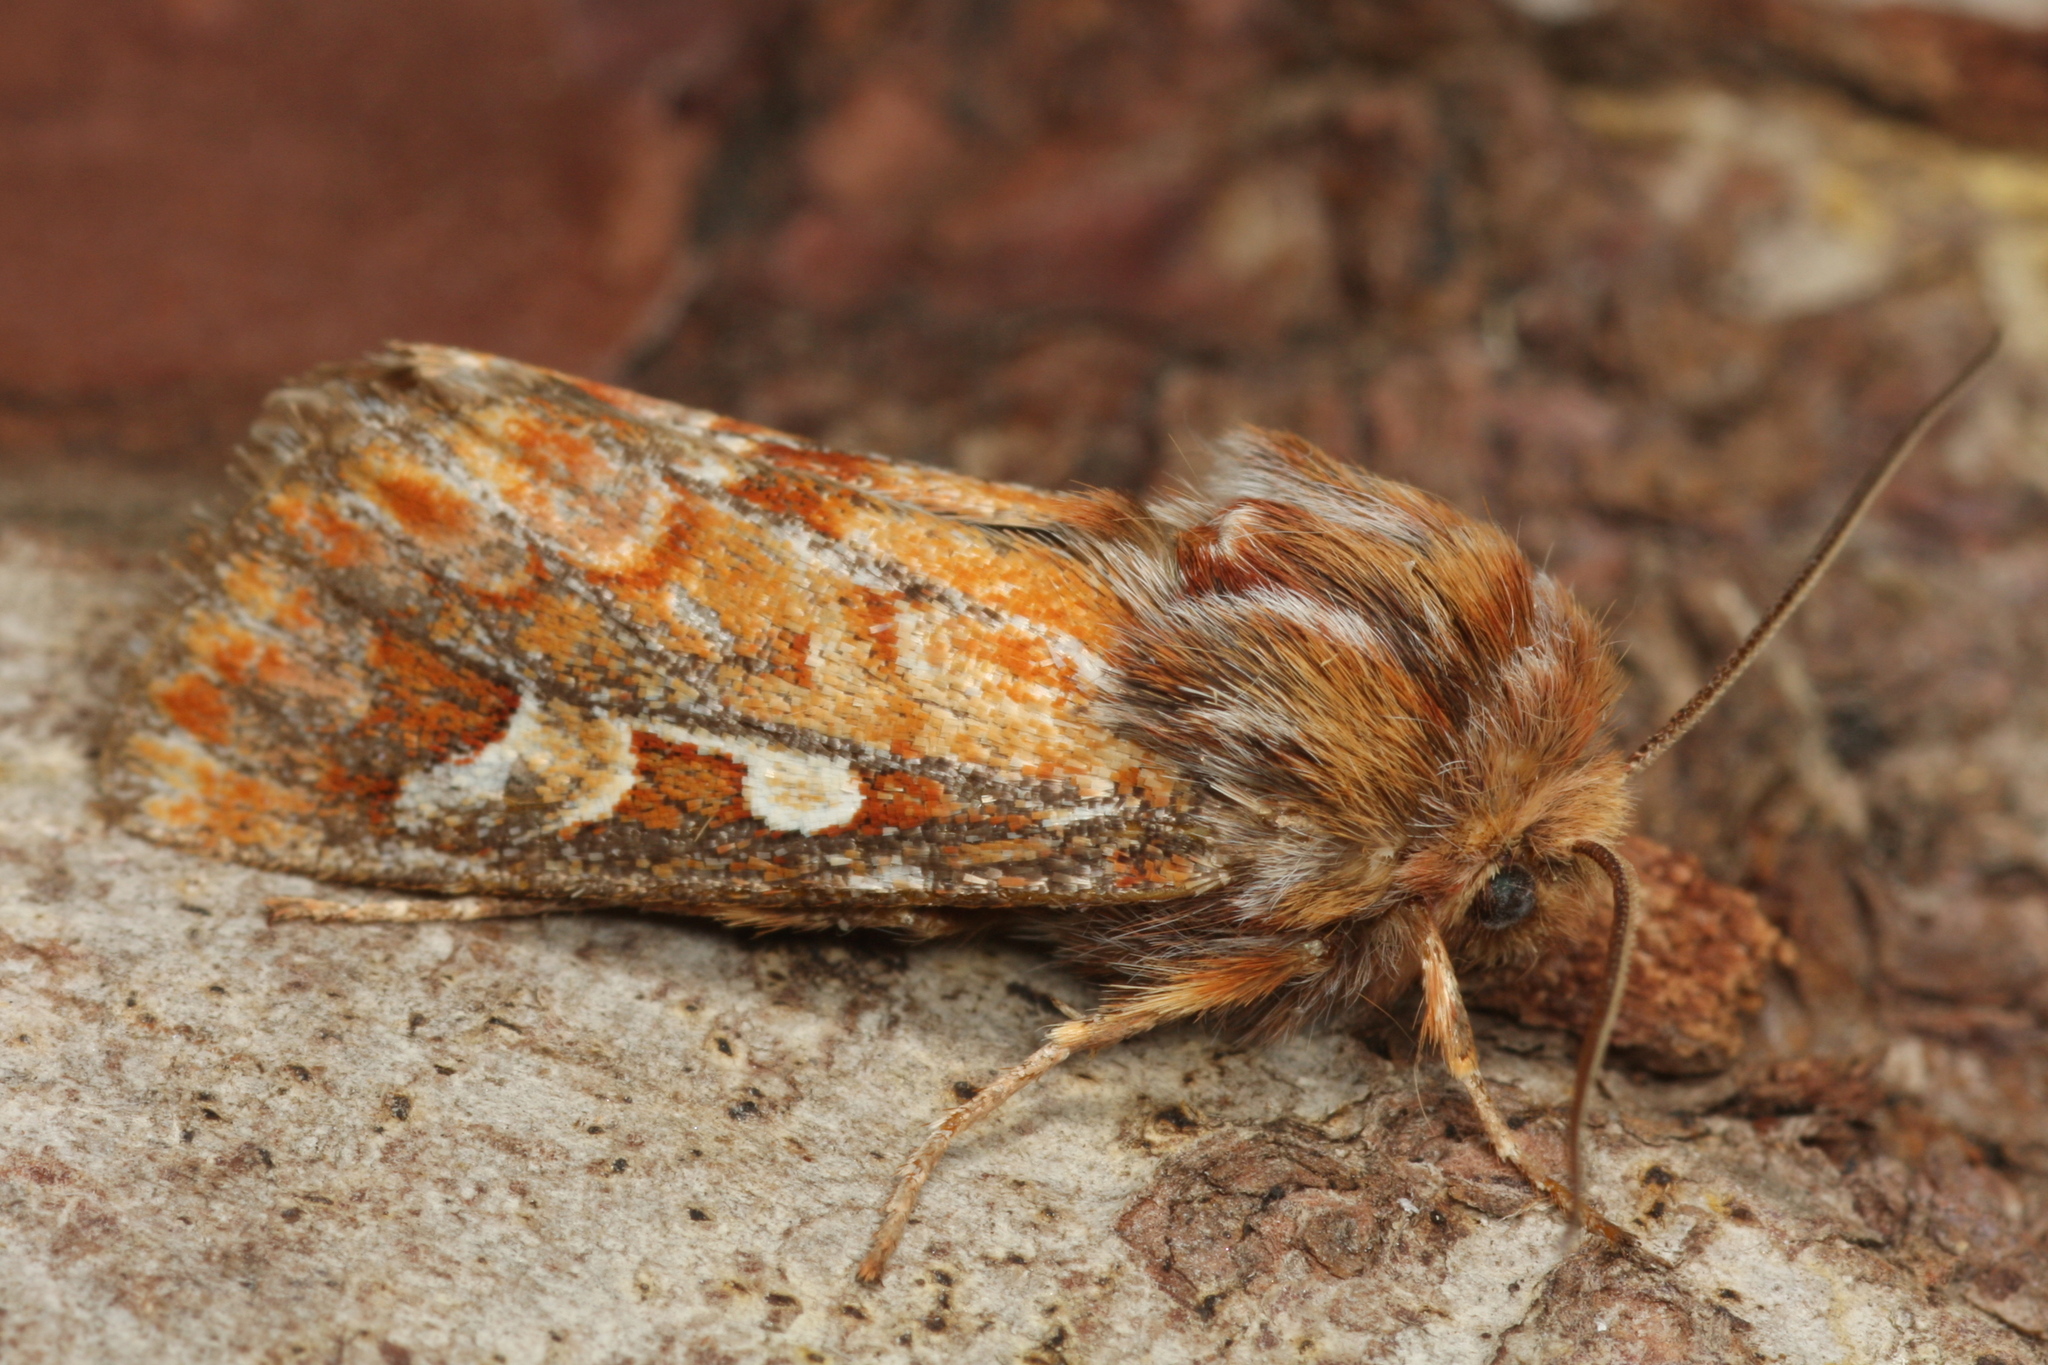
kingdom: Animalia
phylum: Arthropoda
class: Insecta
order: Lepidoptera
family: Noctuidae
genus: Panolis
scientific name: Panolis flammea
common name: Pine beauty
